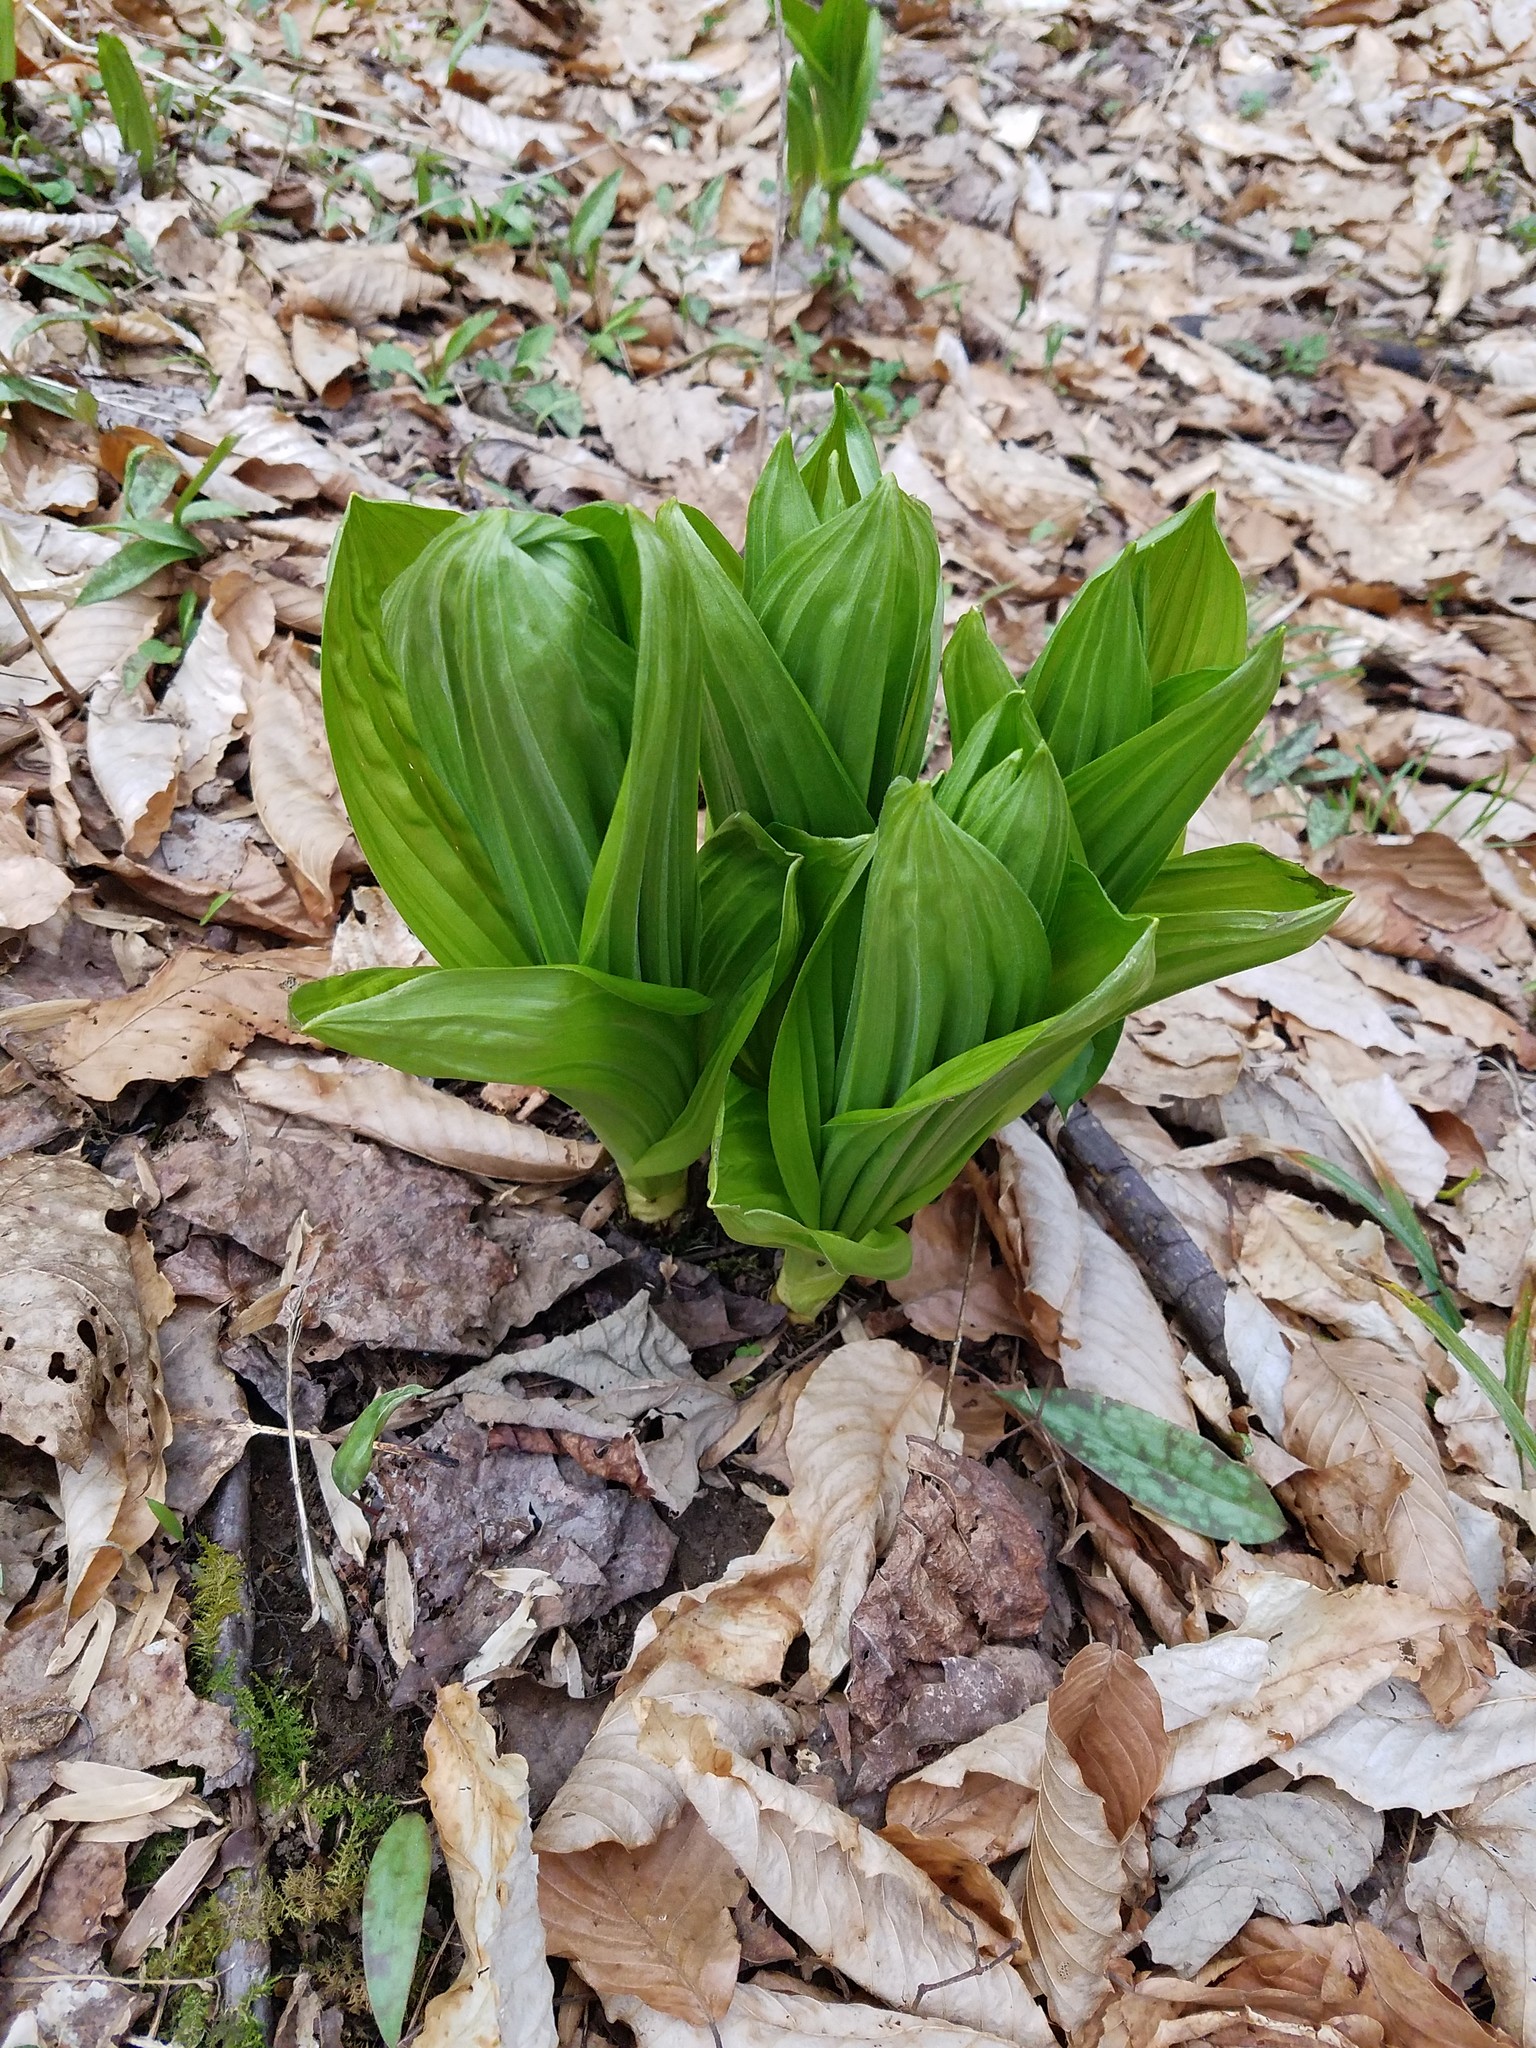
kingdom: Plantae
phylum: Tracheophyta
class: Liliopsida
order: Liliales
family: Melanthiaceae
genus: Veratrum
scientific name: Veratrum viride
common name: American false hellebore
